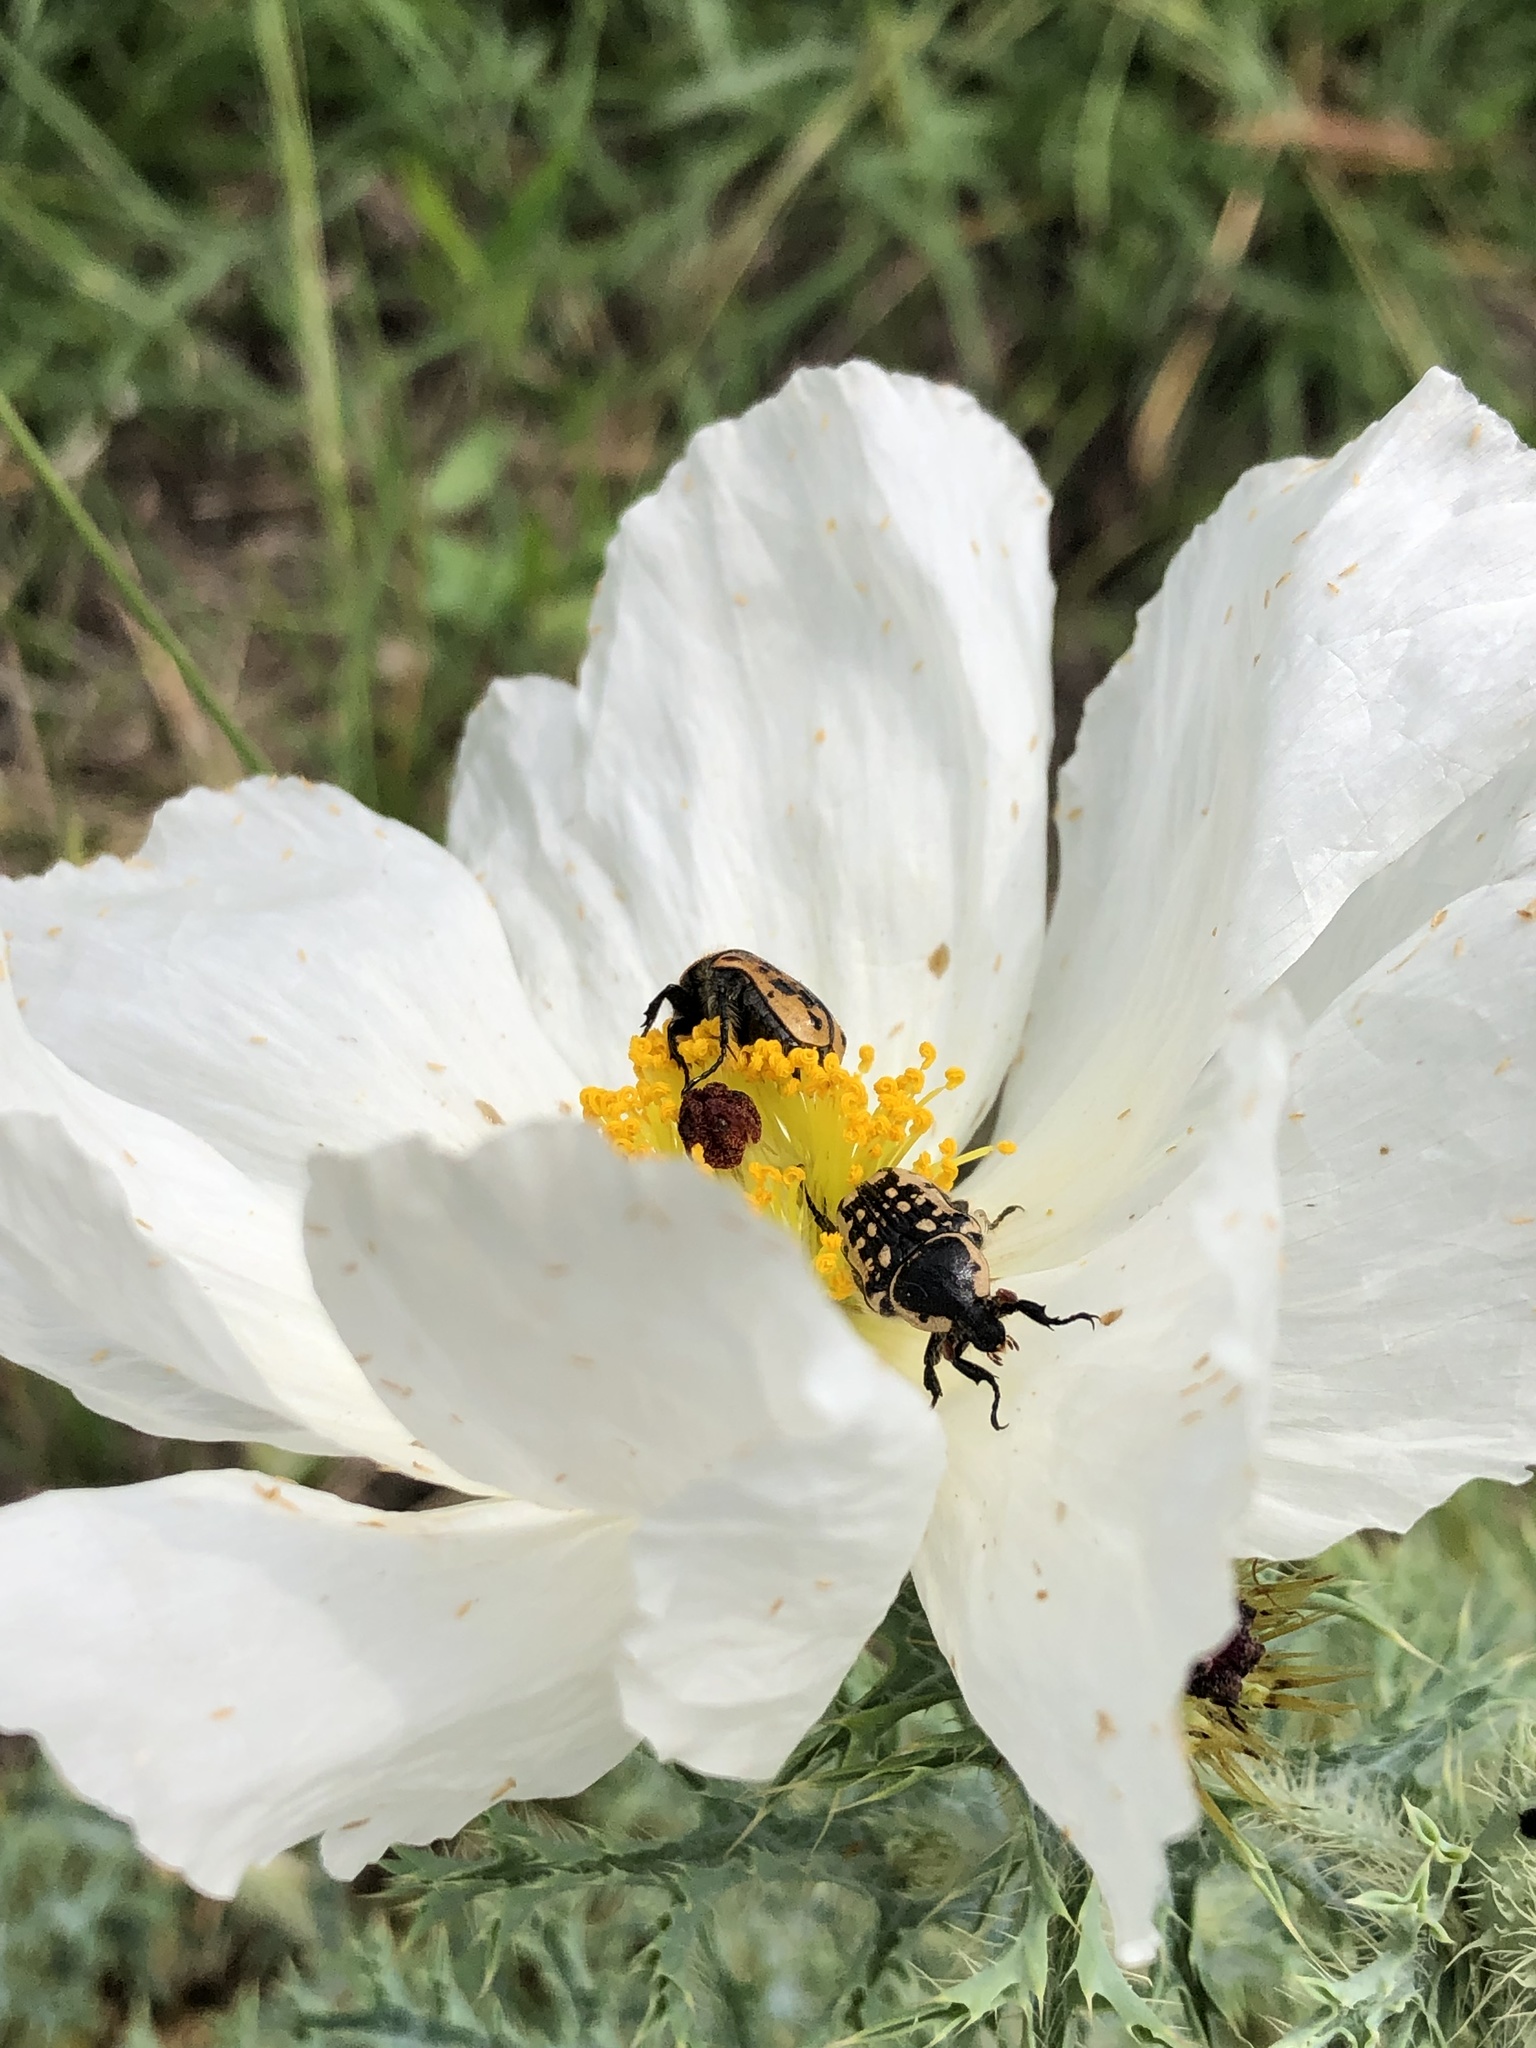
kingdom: Animalia
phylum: Arthropoda
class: Insecta
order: Coleoptera
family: Scarabaeidae
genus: Euphoria
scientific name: Euphoria kernii
